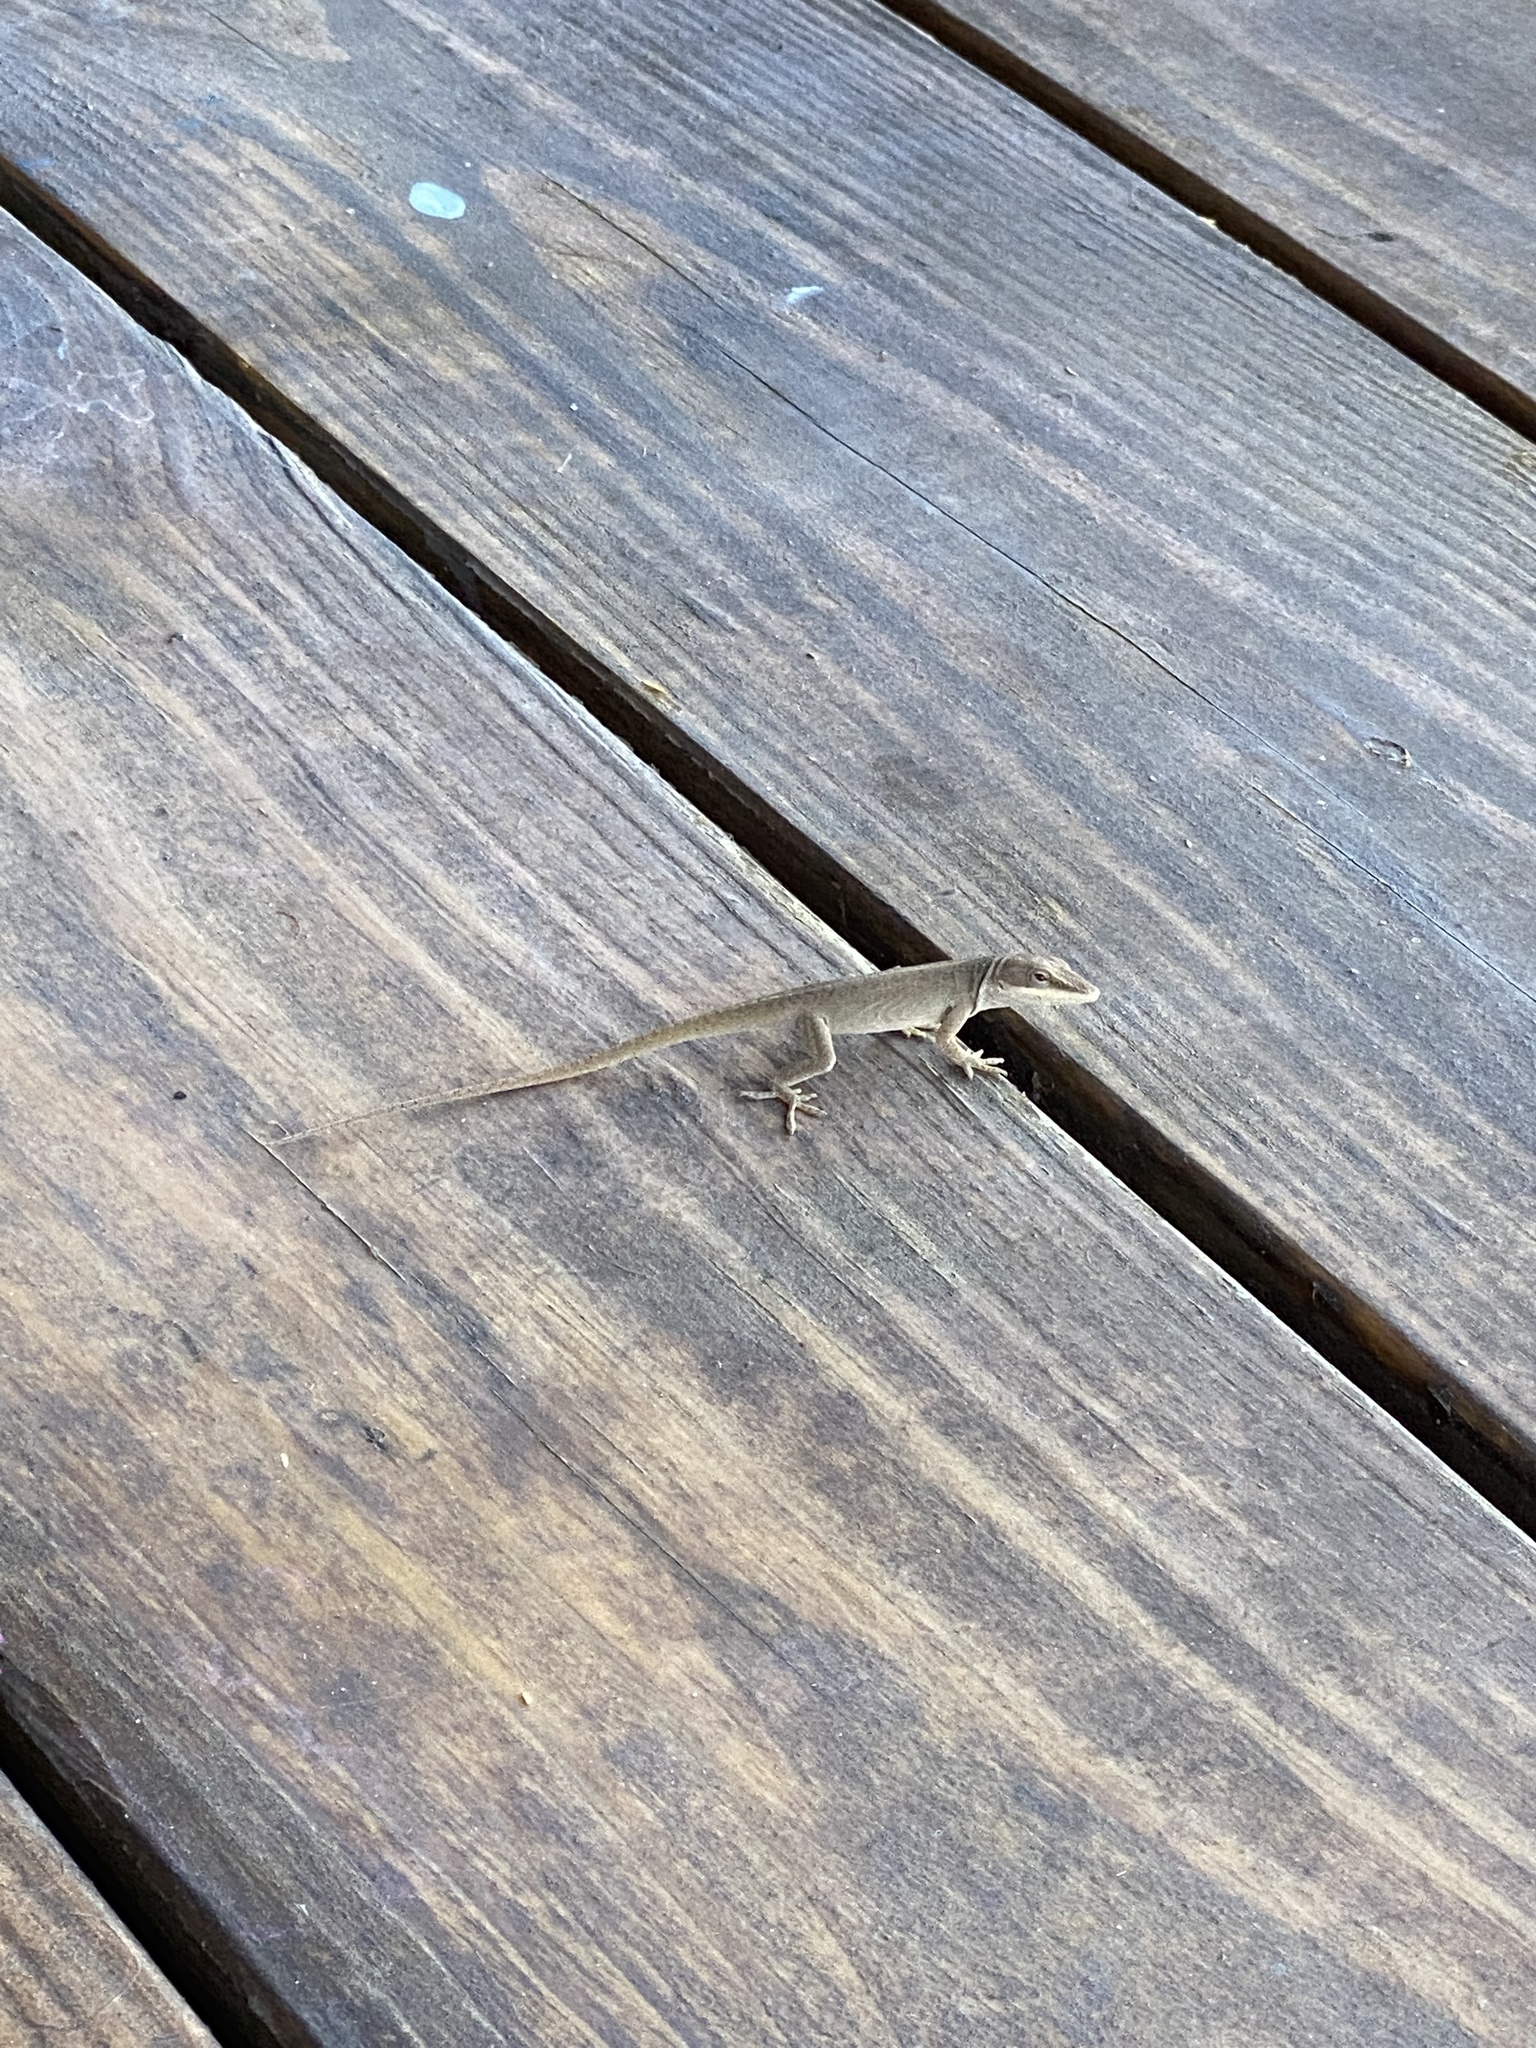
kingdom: Animalia
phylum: Chordata
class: Squamata
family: Dactyloidae
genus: Anolis
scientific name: Anolis carolinensis
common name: Green anole
